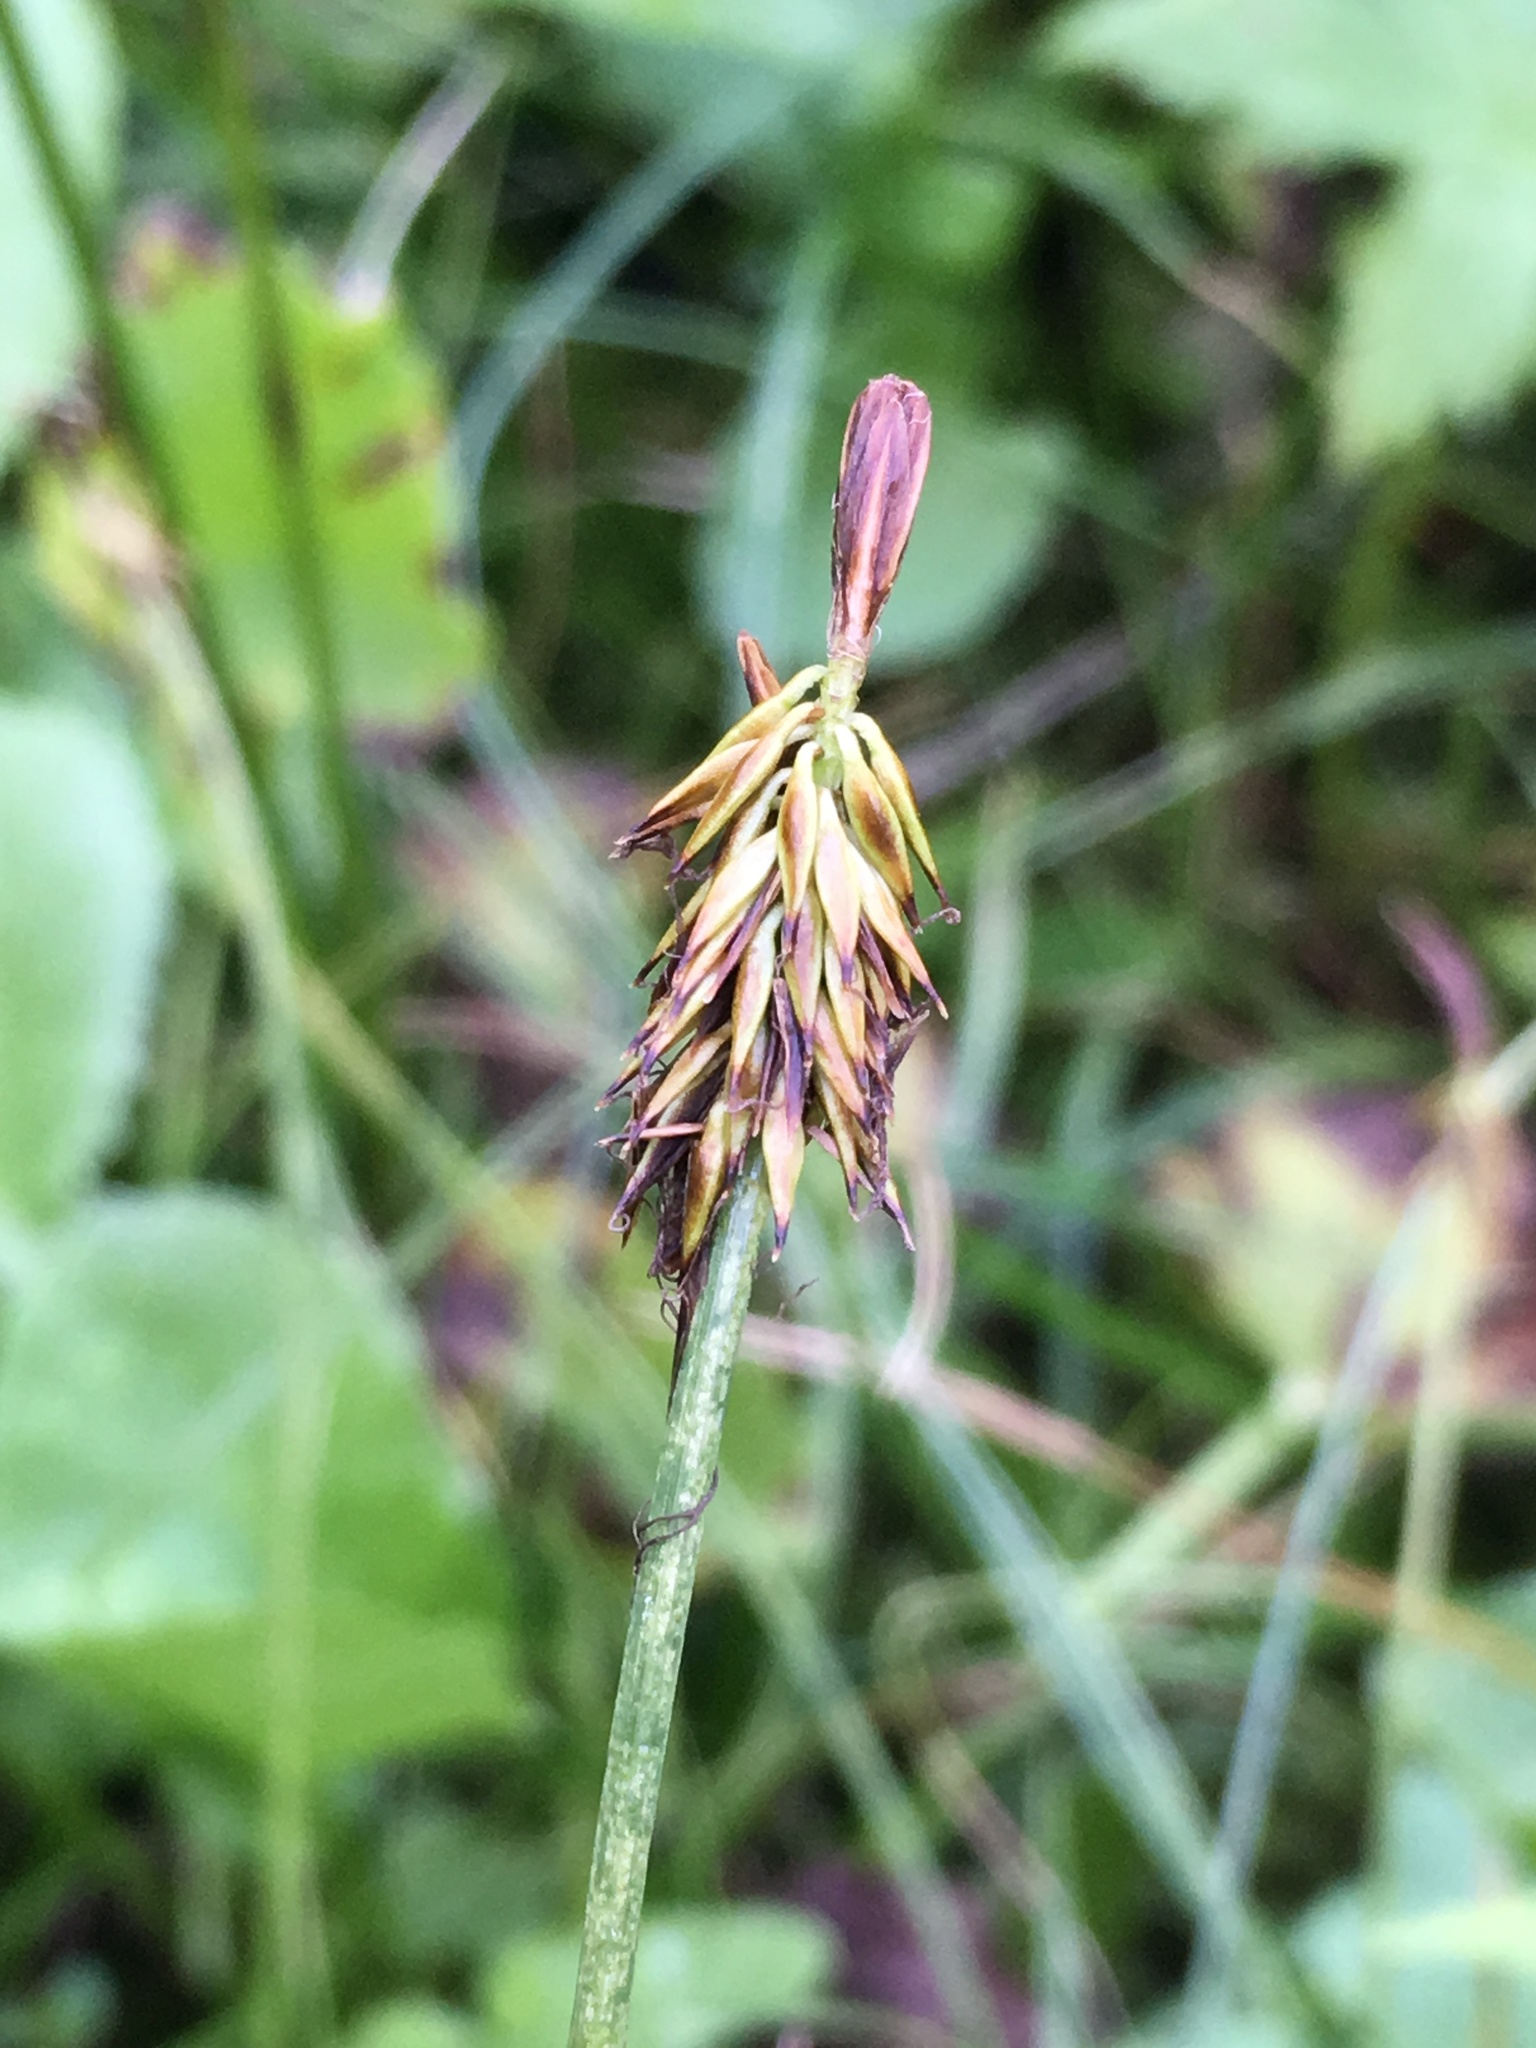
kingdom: Plantae
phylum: Tracheophyta
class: Liliopsida
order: Poales
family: Cyperaceae
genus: Carex
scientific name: Carex nigricans
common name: Black alpine sedge
